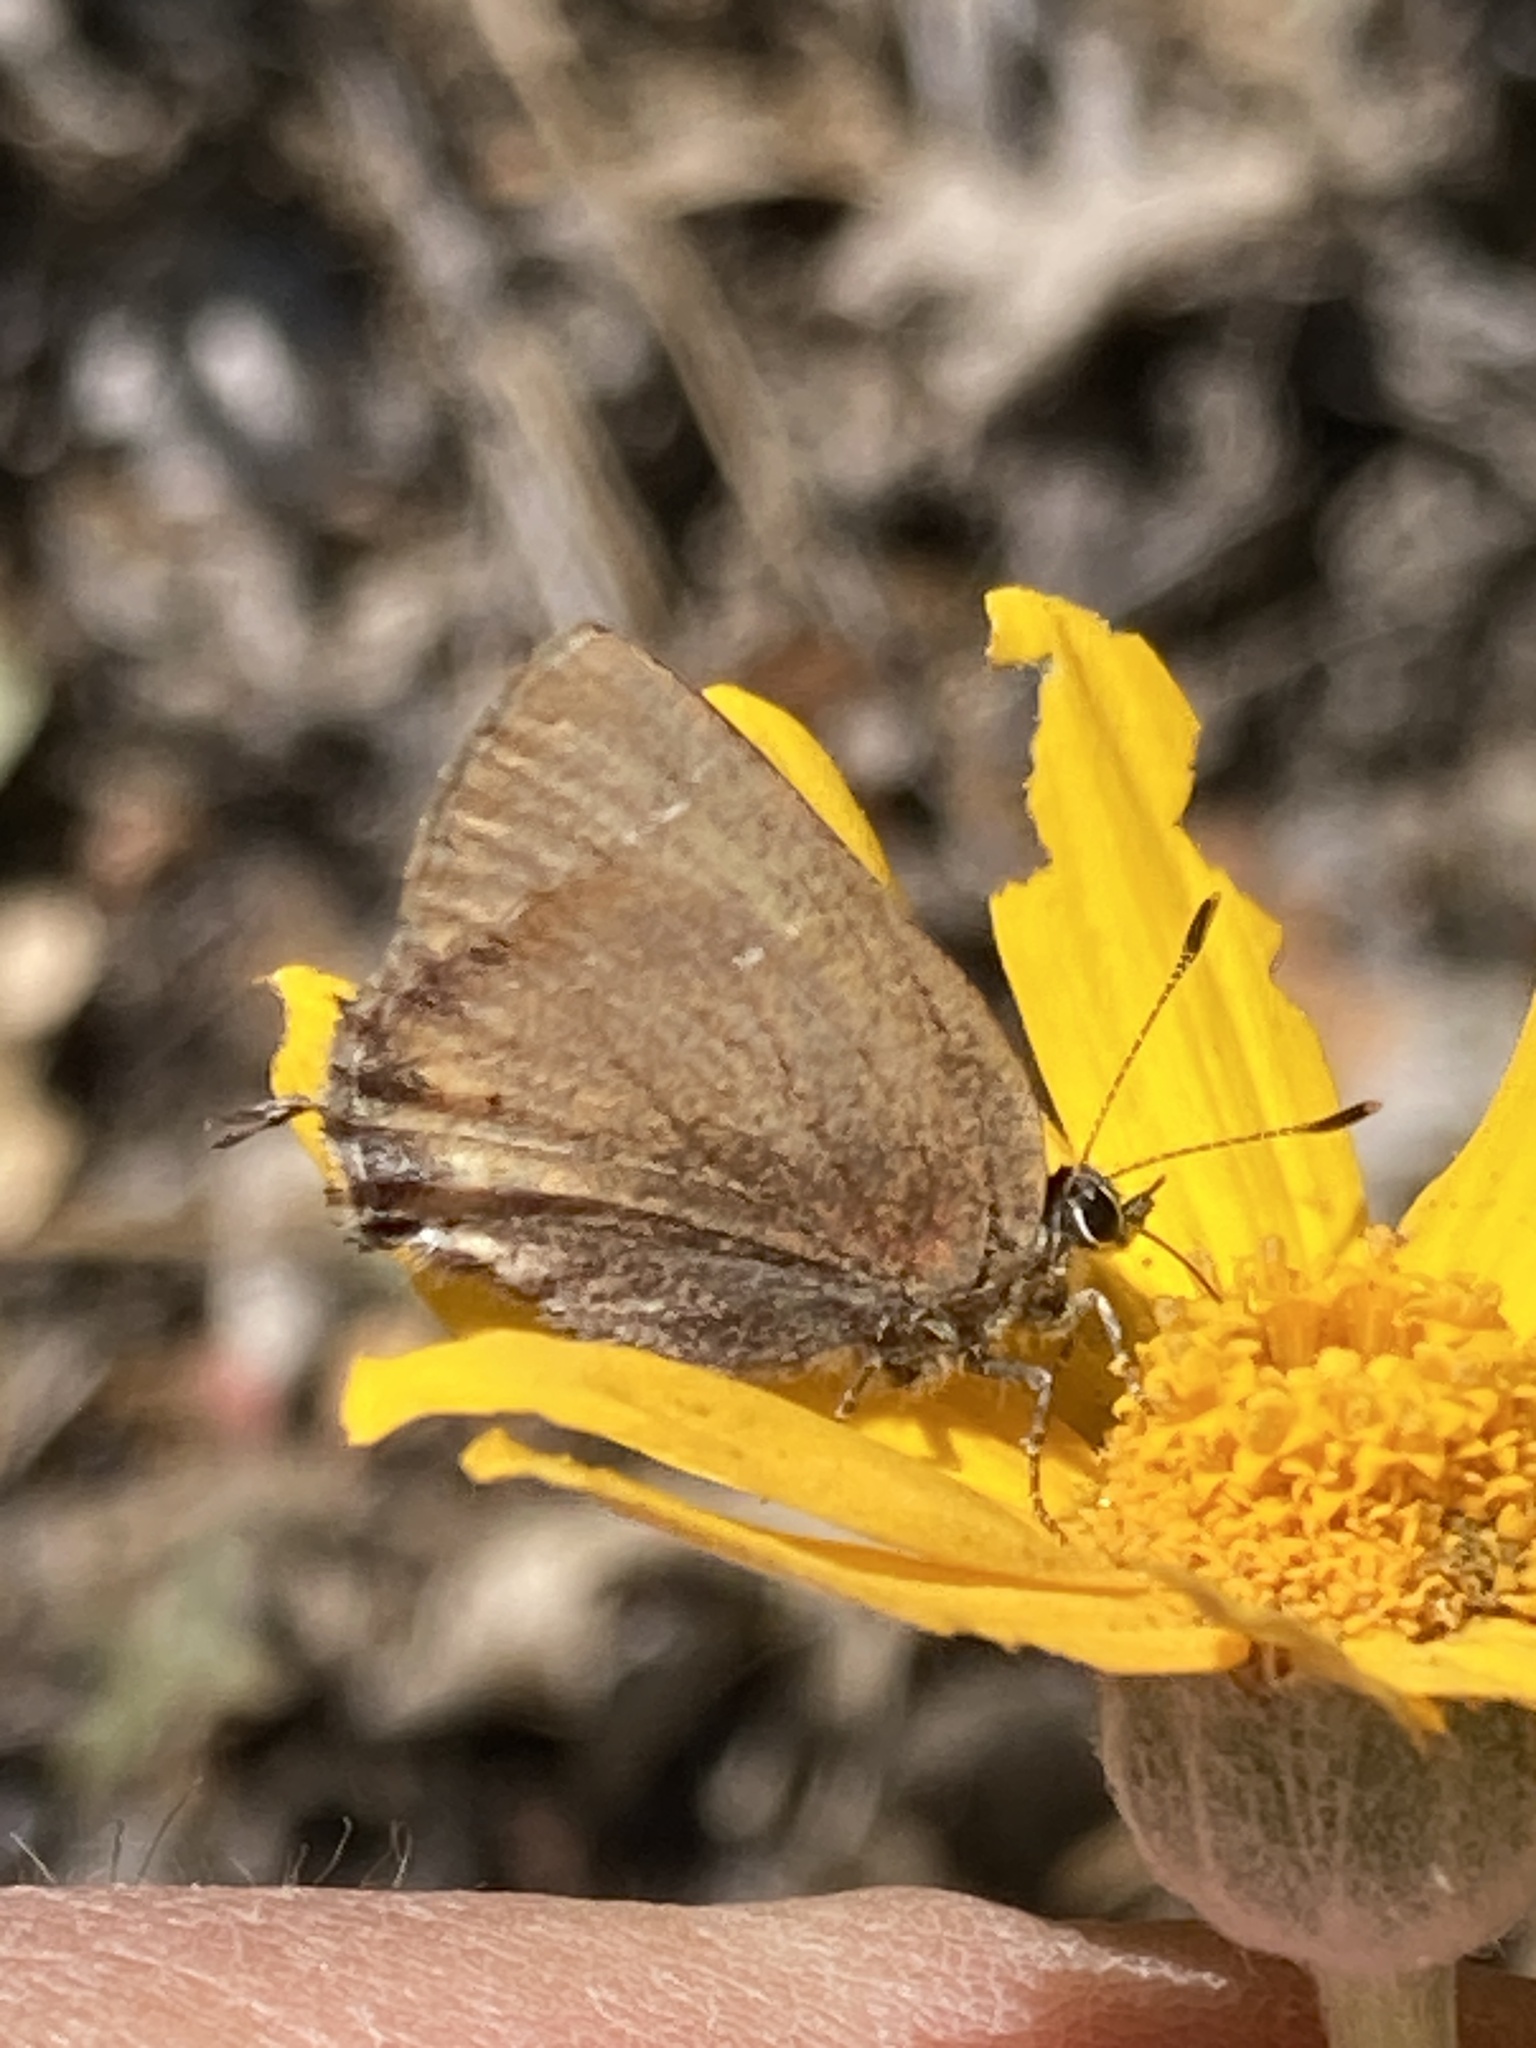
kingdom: Animalia
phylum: Arthropoda
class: Insecta
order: Lepidoptera
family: Lycaenidae
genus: Mitoura
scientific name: Mitoura gryneus
